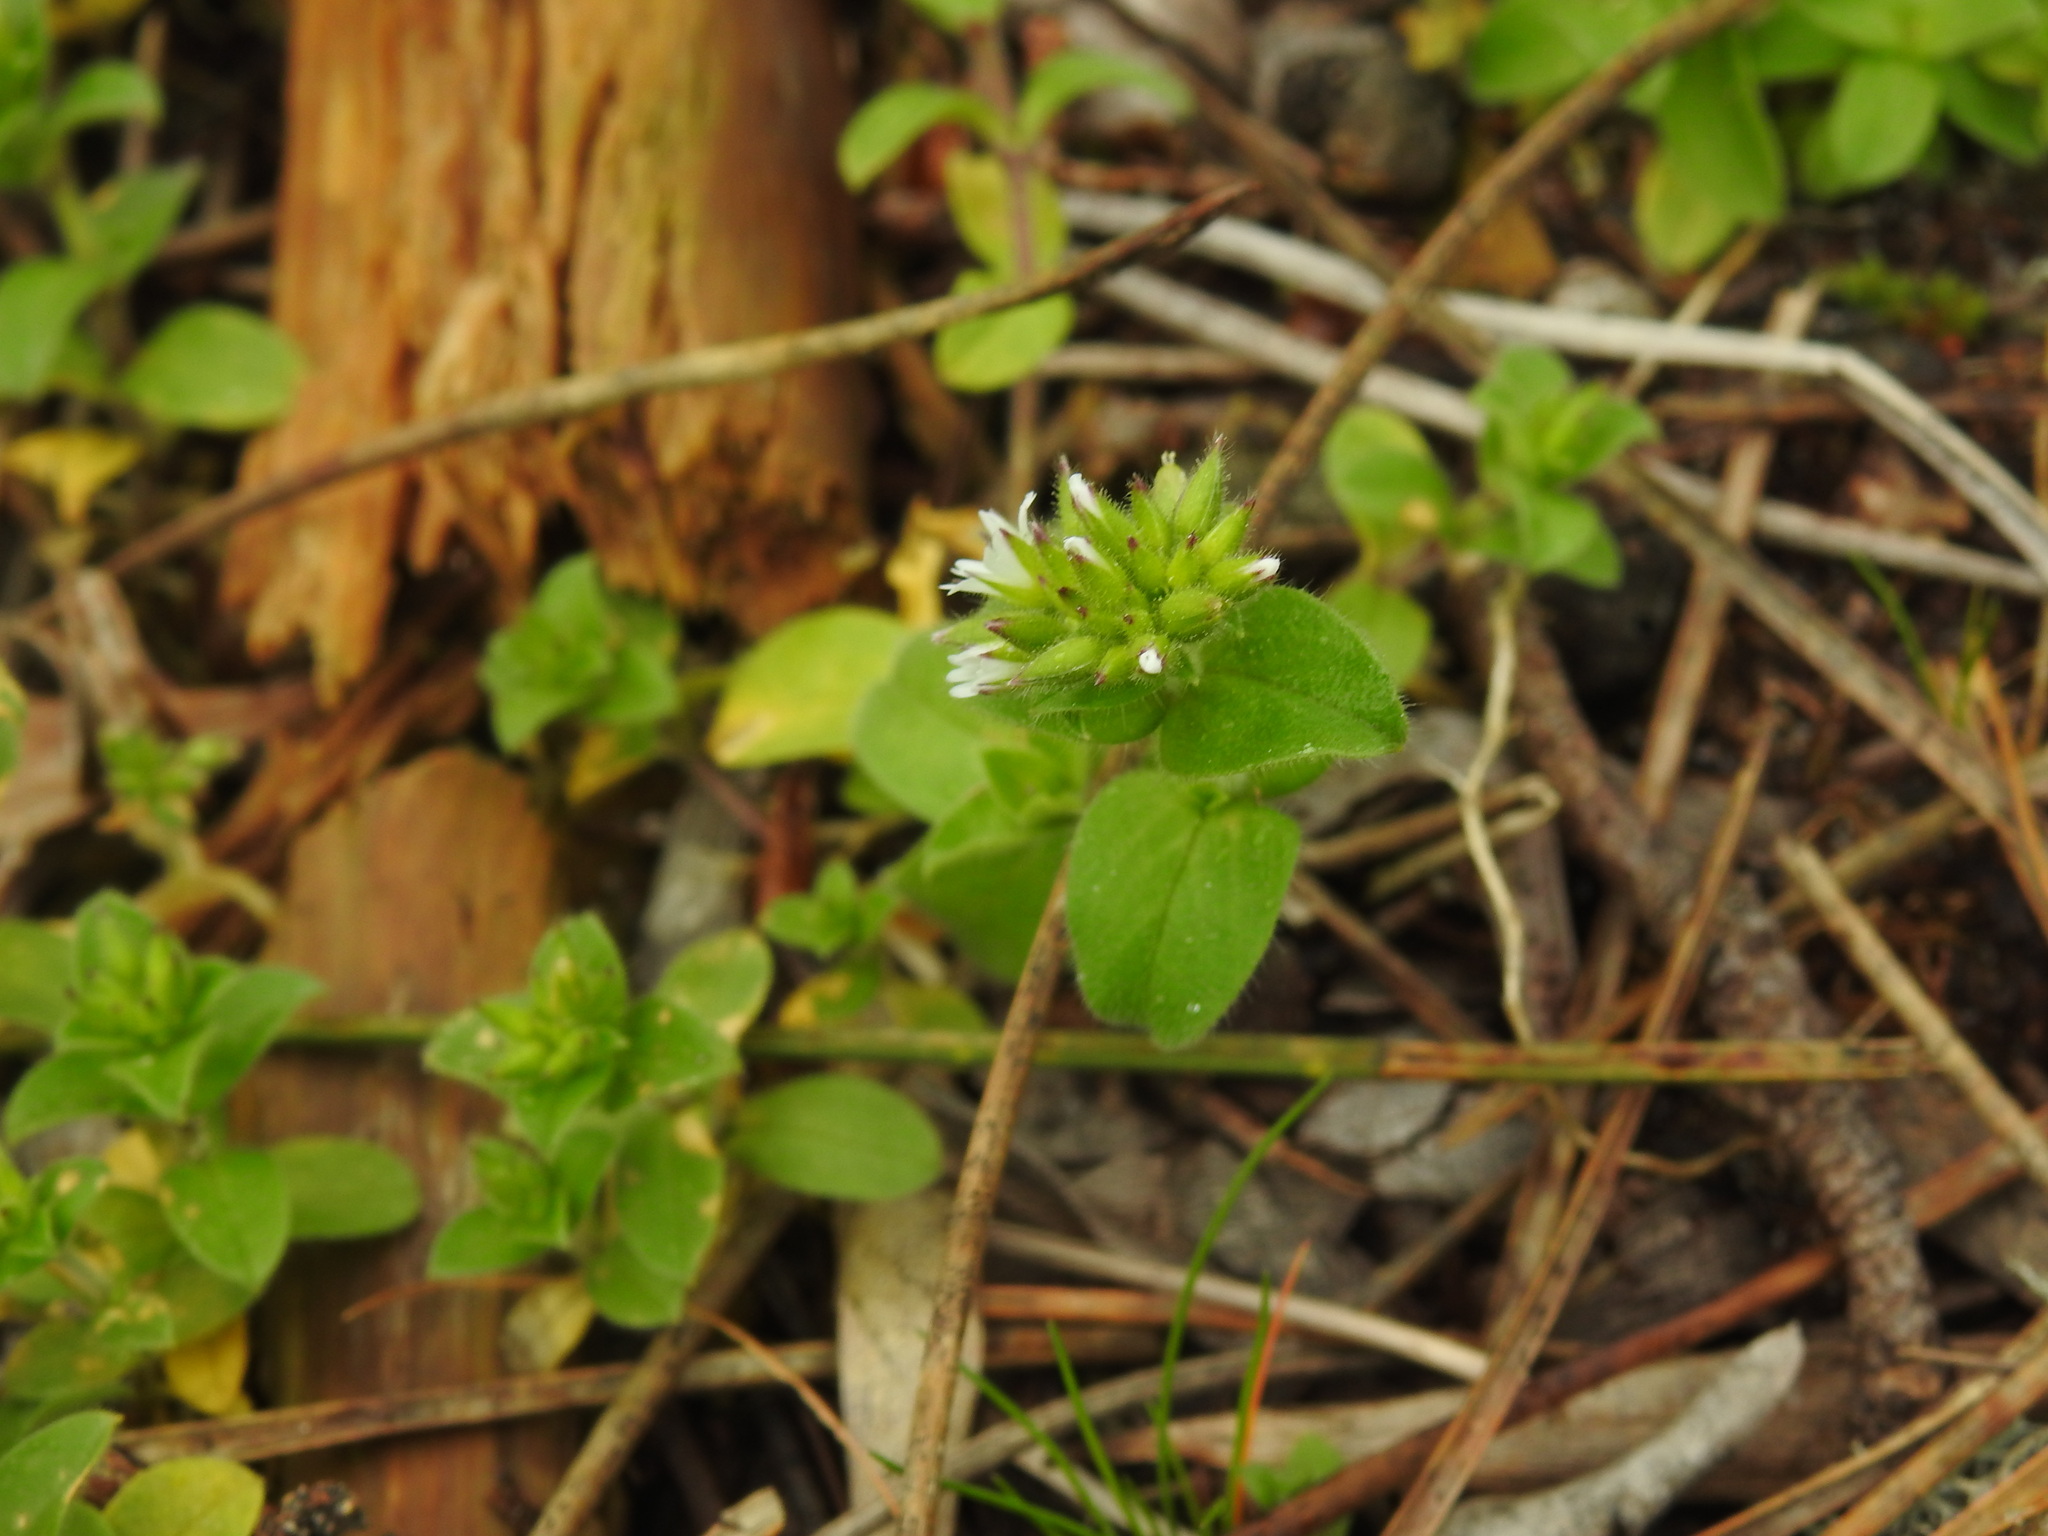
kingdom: Plantae
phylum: Tracheophyta
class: Magnoliopsida
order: Caryophyllales
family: Caryophyllaceae
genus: Cerastium
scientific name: Cerastium glomeratum
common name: Sticky chickweed
